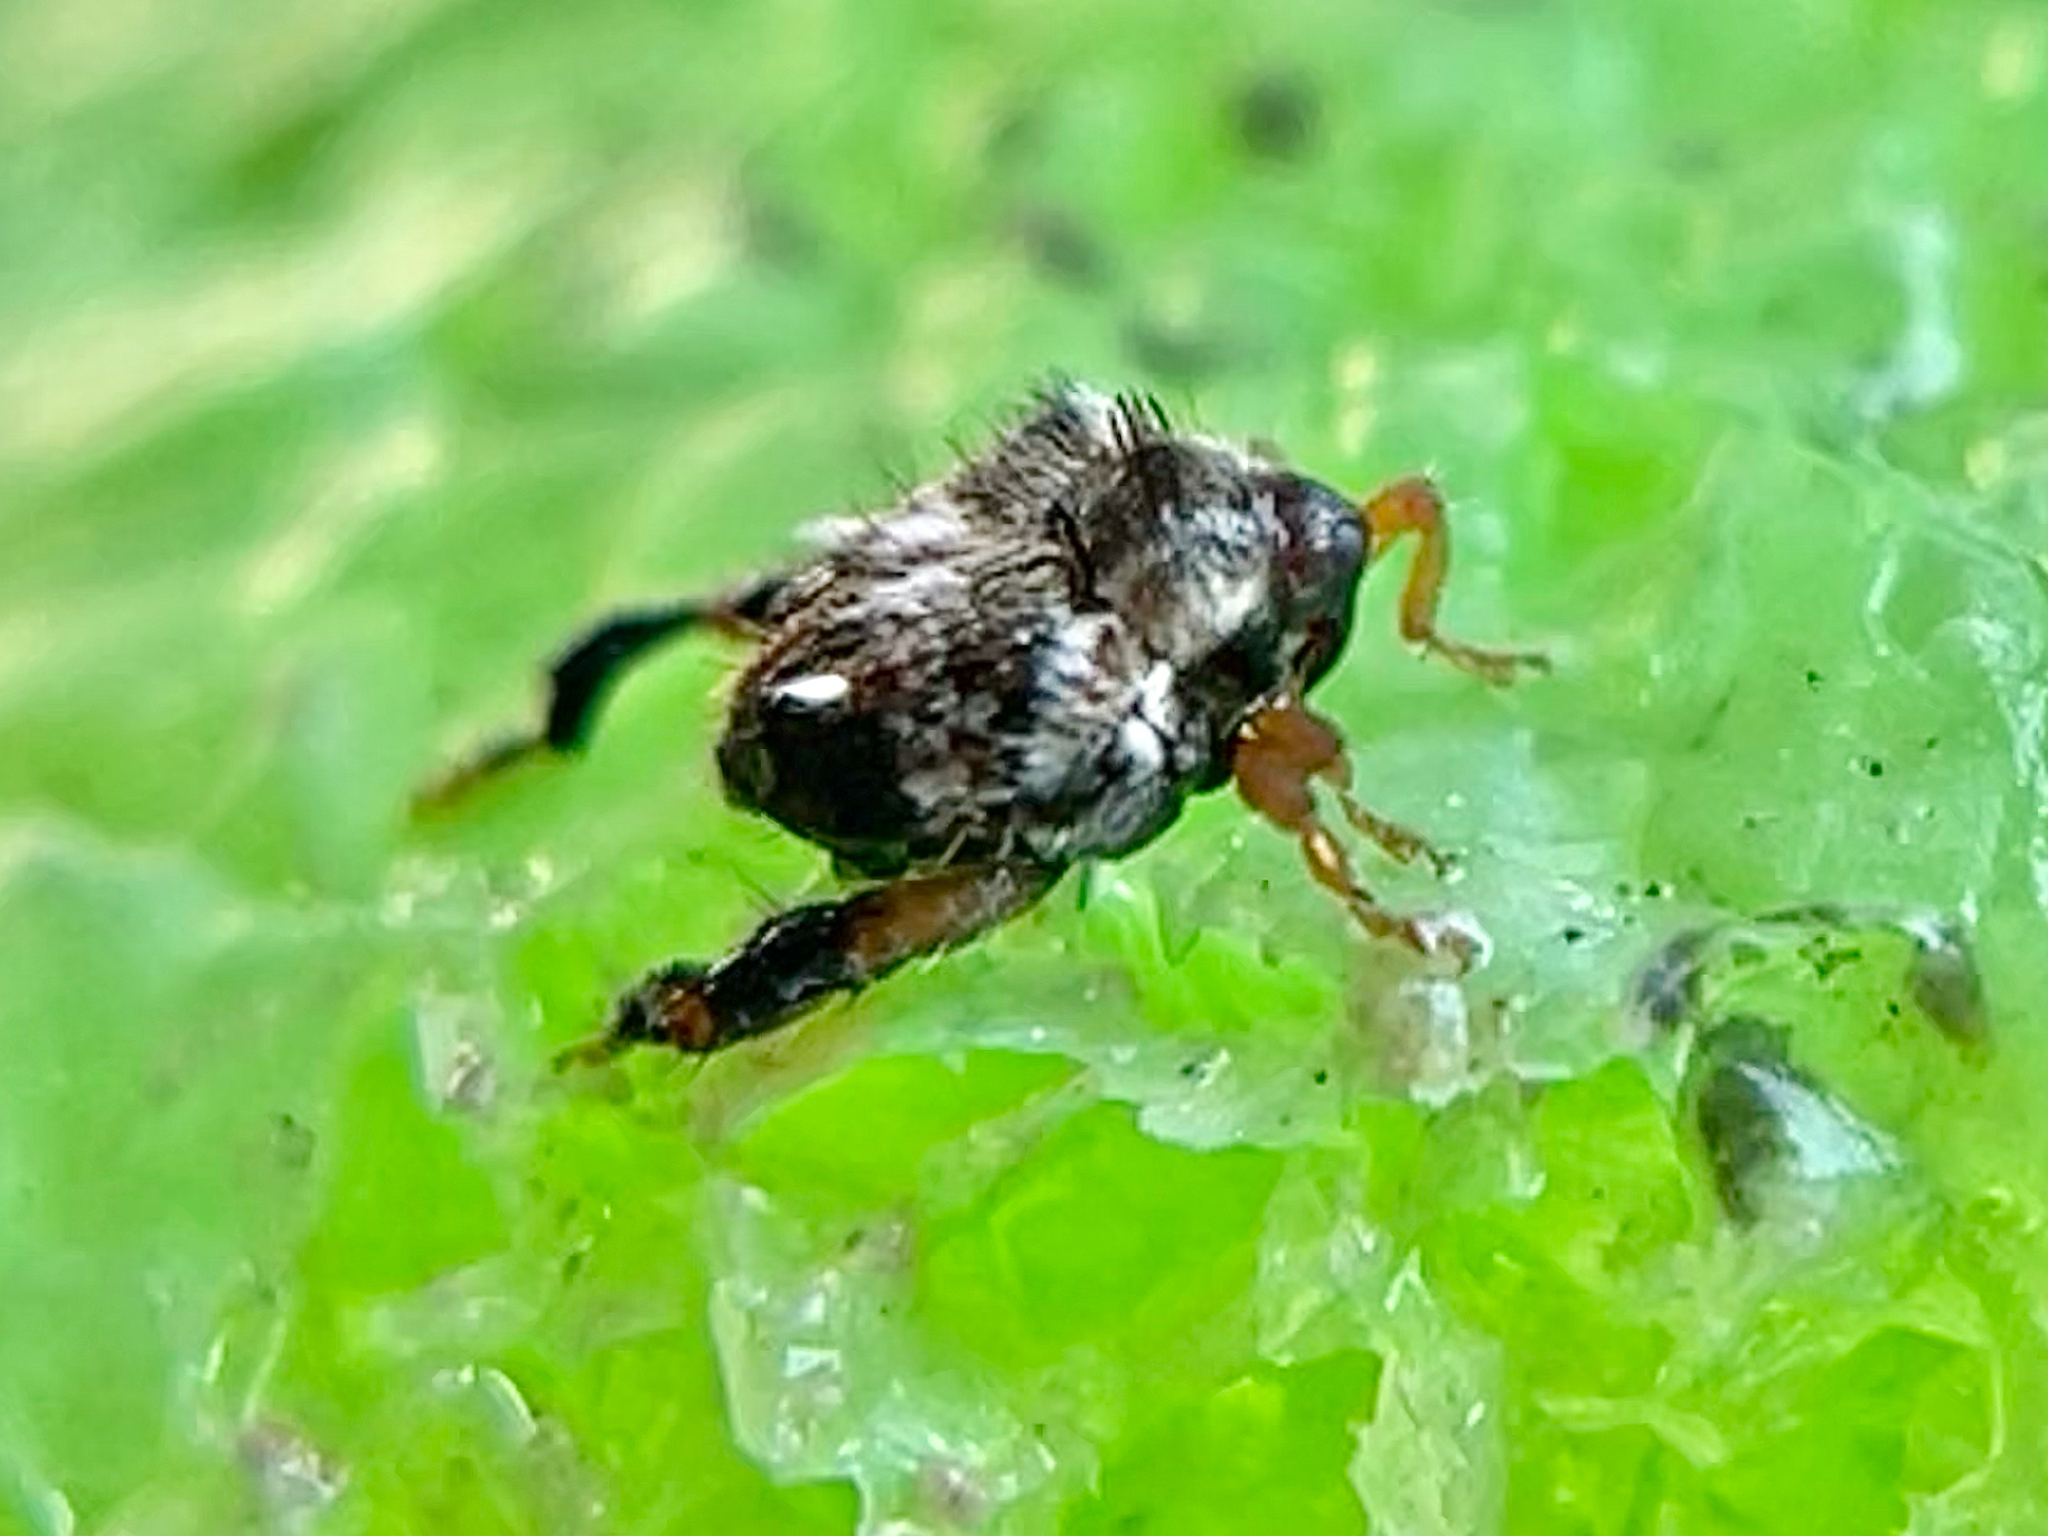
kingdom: Animalia
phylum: Arthropoda
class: Insecta
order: Coleoptera
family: Curculionidae
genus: Tachygonus
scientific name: Tachygonus lecontei
